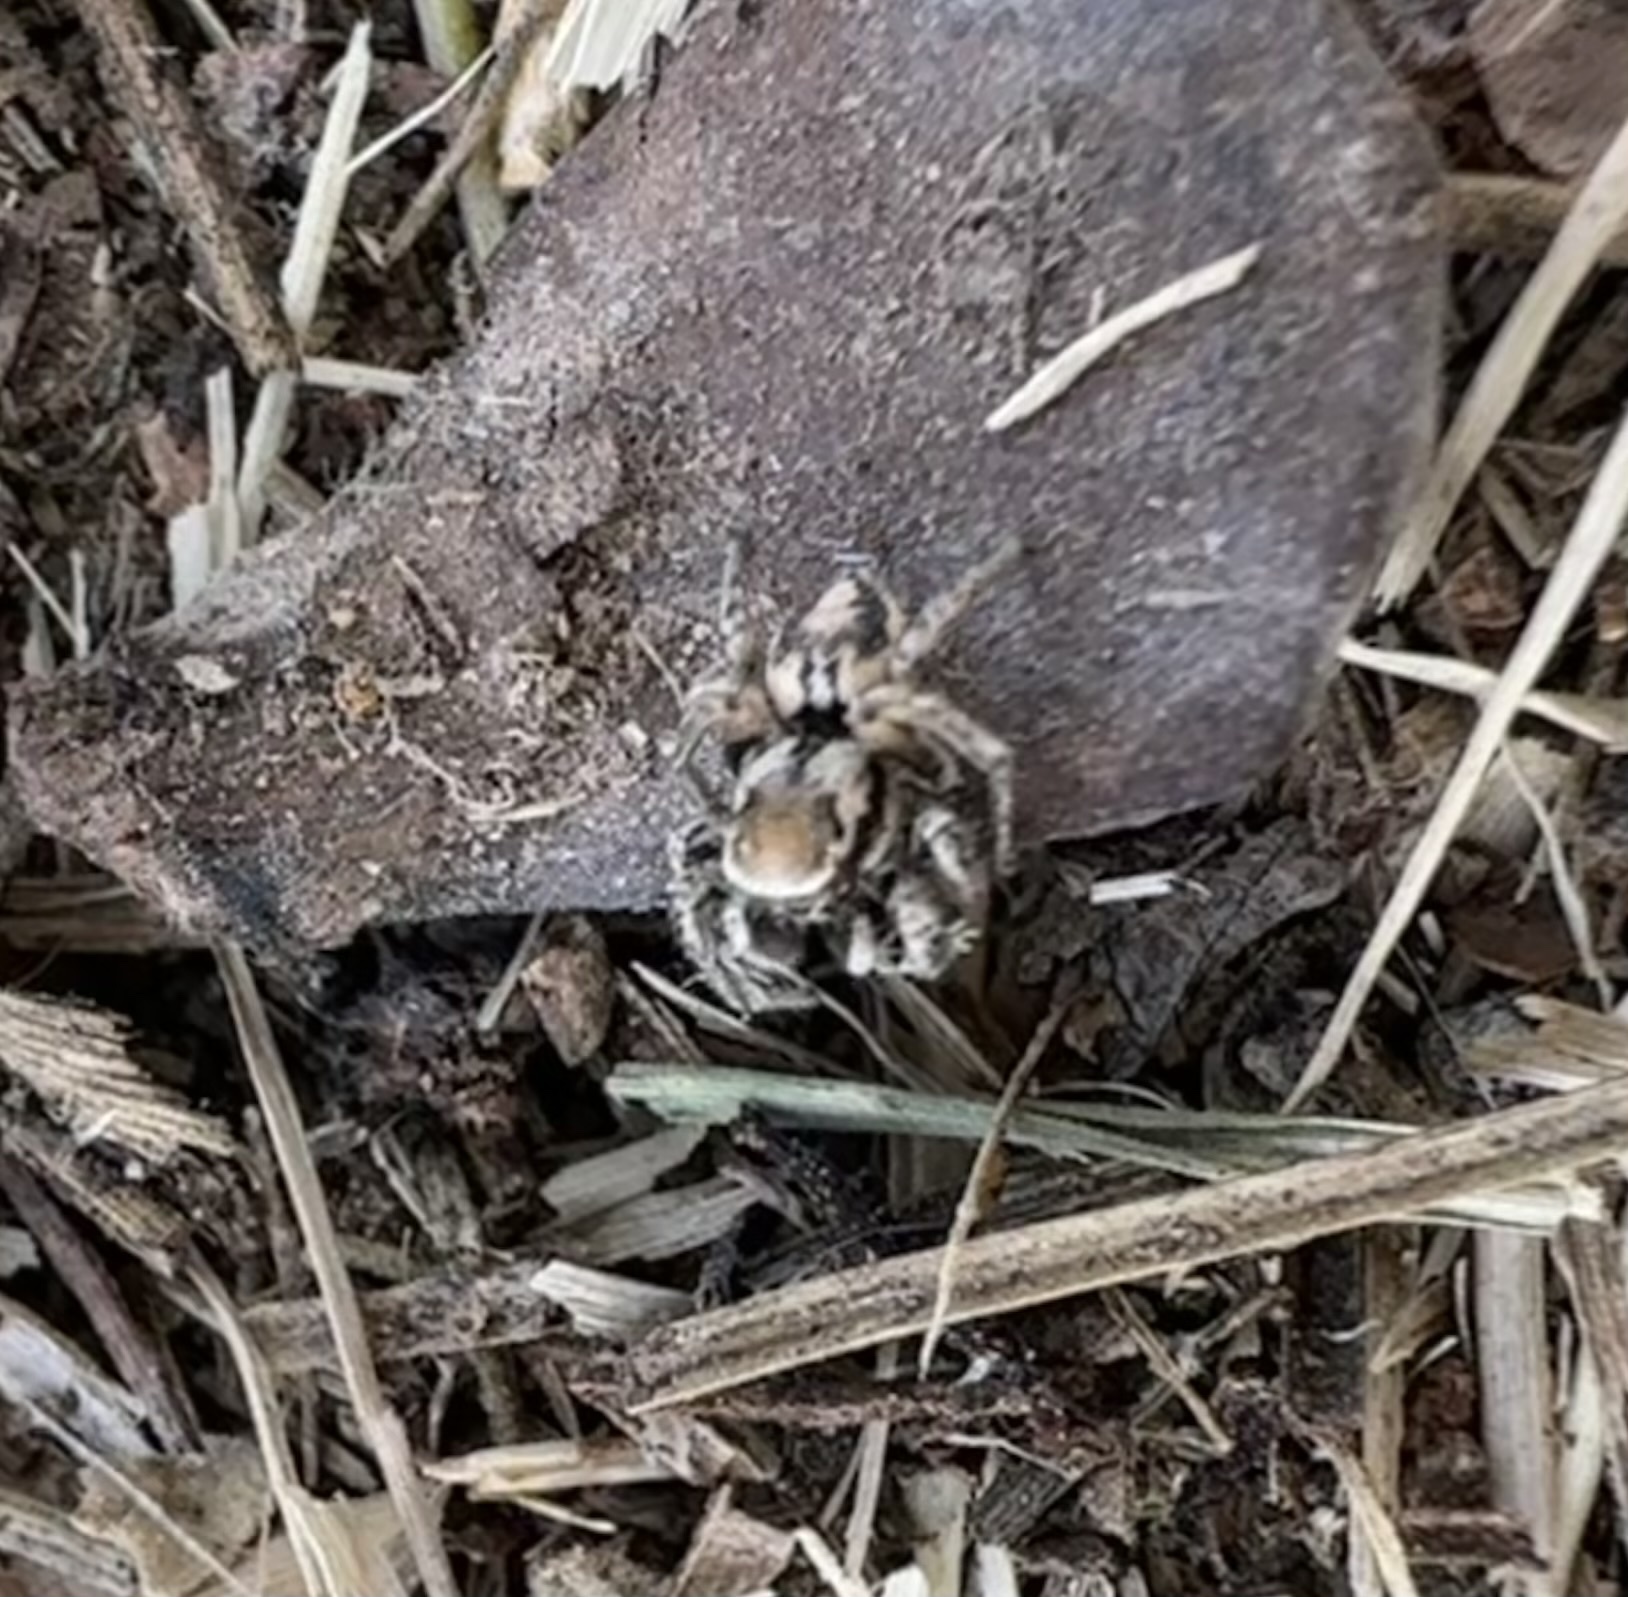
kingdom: Animalia
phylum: Arthropoda
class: Arachnida
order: Araneae
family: Salticidae
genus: Habronattus
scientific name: Habronattus clypeatus
